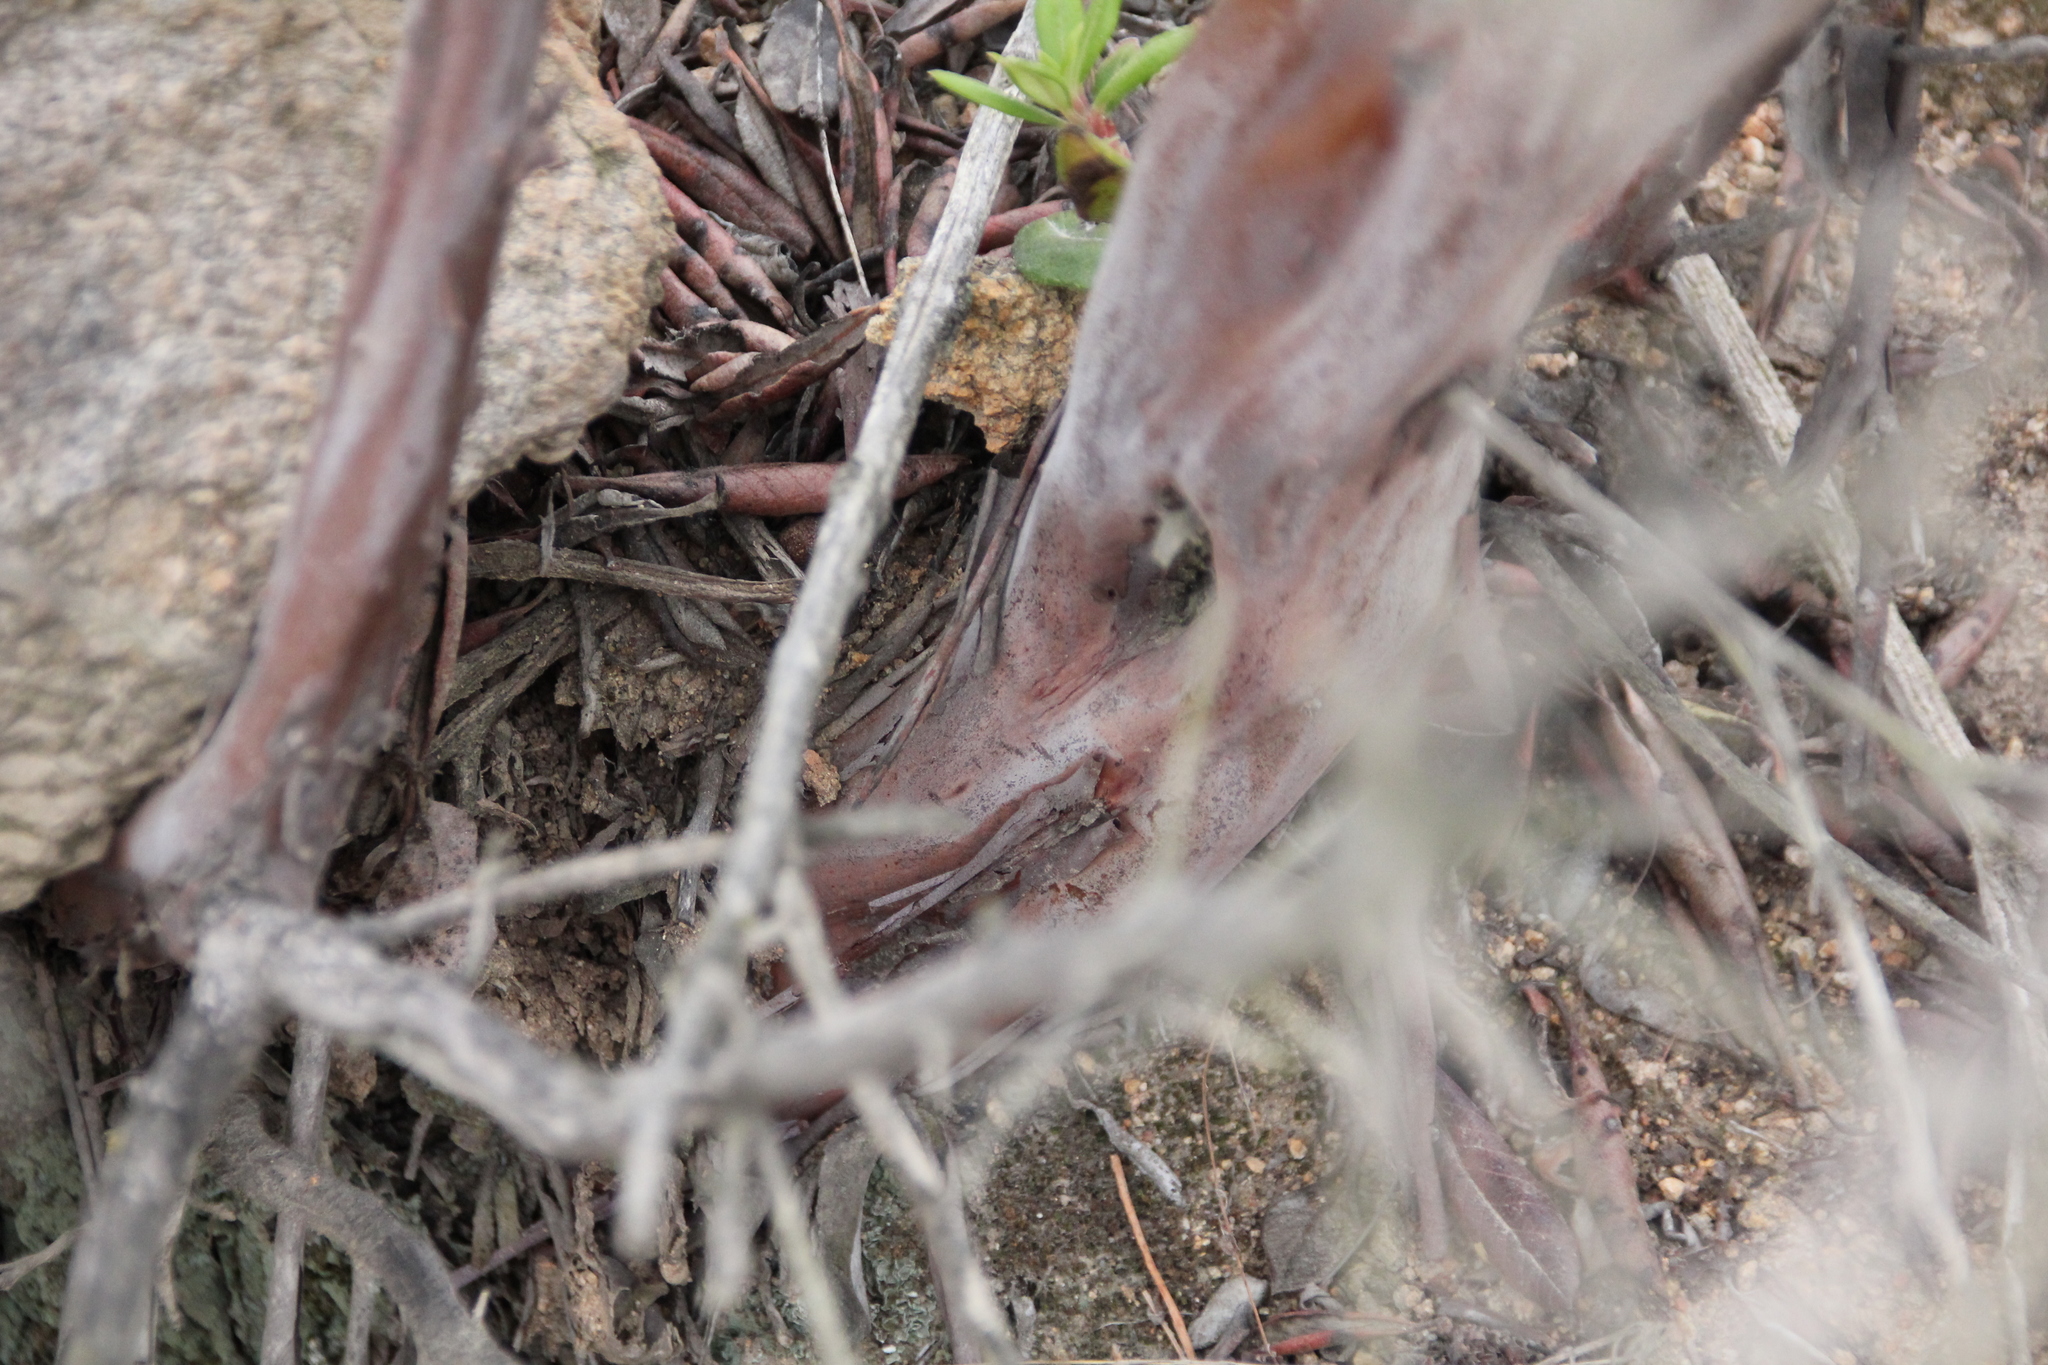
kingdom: Plantae
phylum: Tracheophyta
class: Magnoliopsida
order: Ericales
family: Ericaceae
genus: Arctostaphylos
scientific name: Arctostaphylos bicolor
